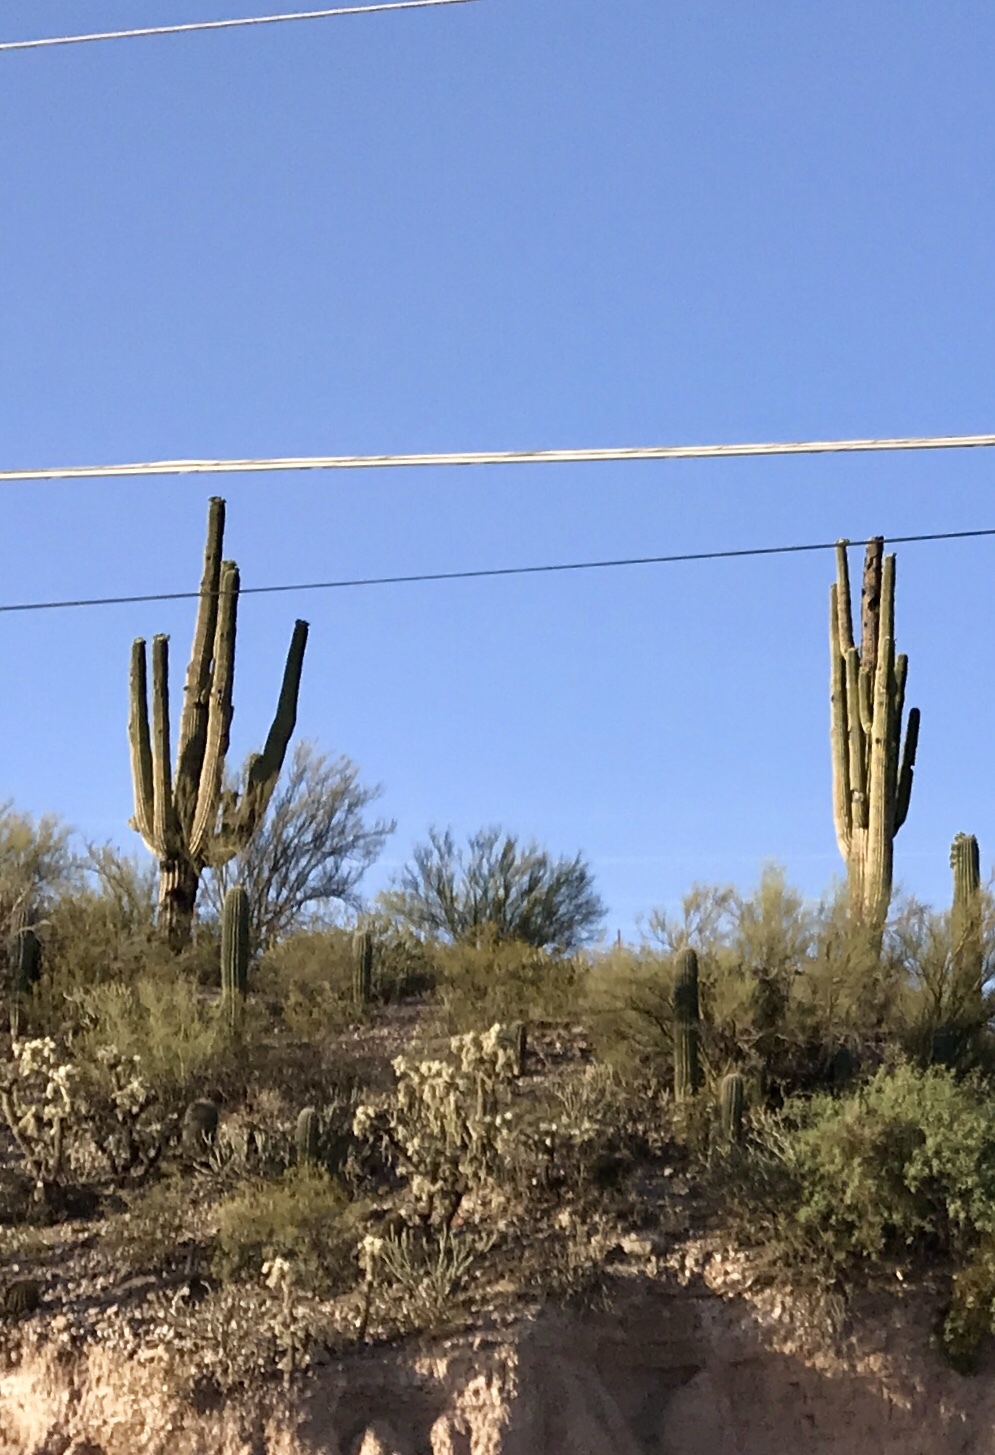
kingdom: Plantae
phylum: Tracheophyta
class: Magnoliopsida
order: Caryophyllales
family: Cactaceae
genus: Carnegiea
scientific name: Carnegiea gigantea
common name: Saguaro
